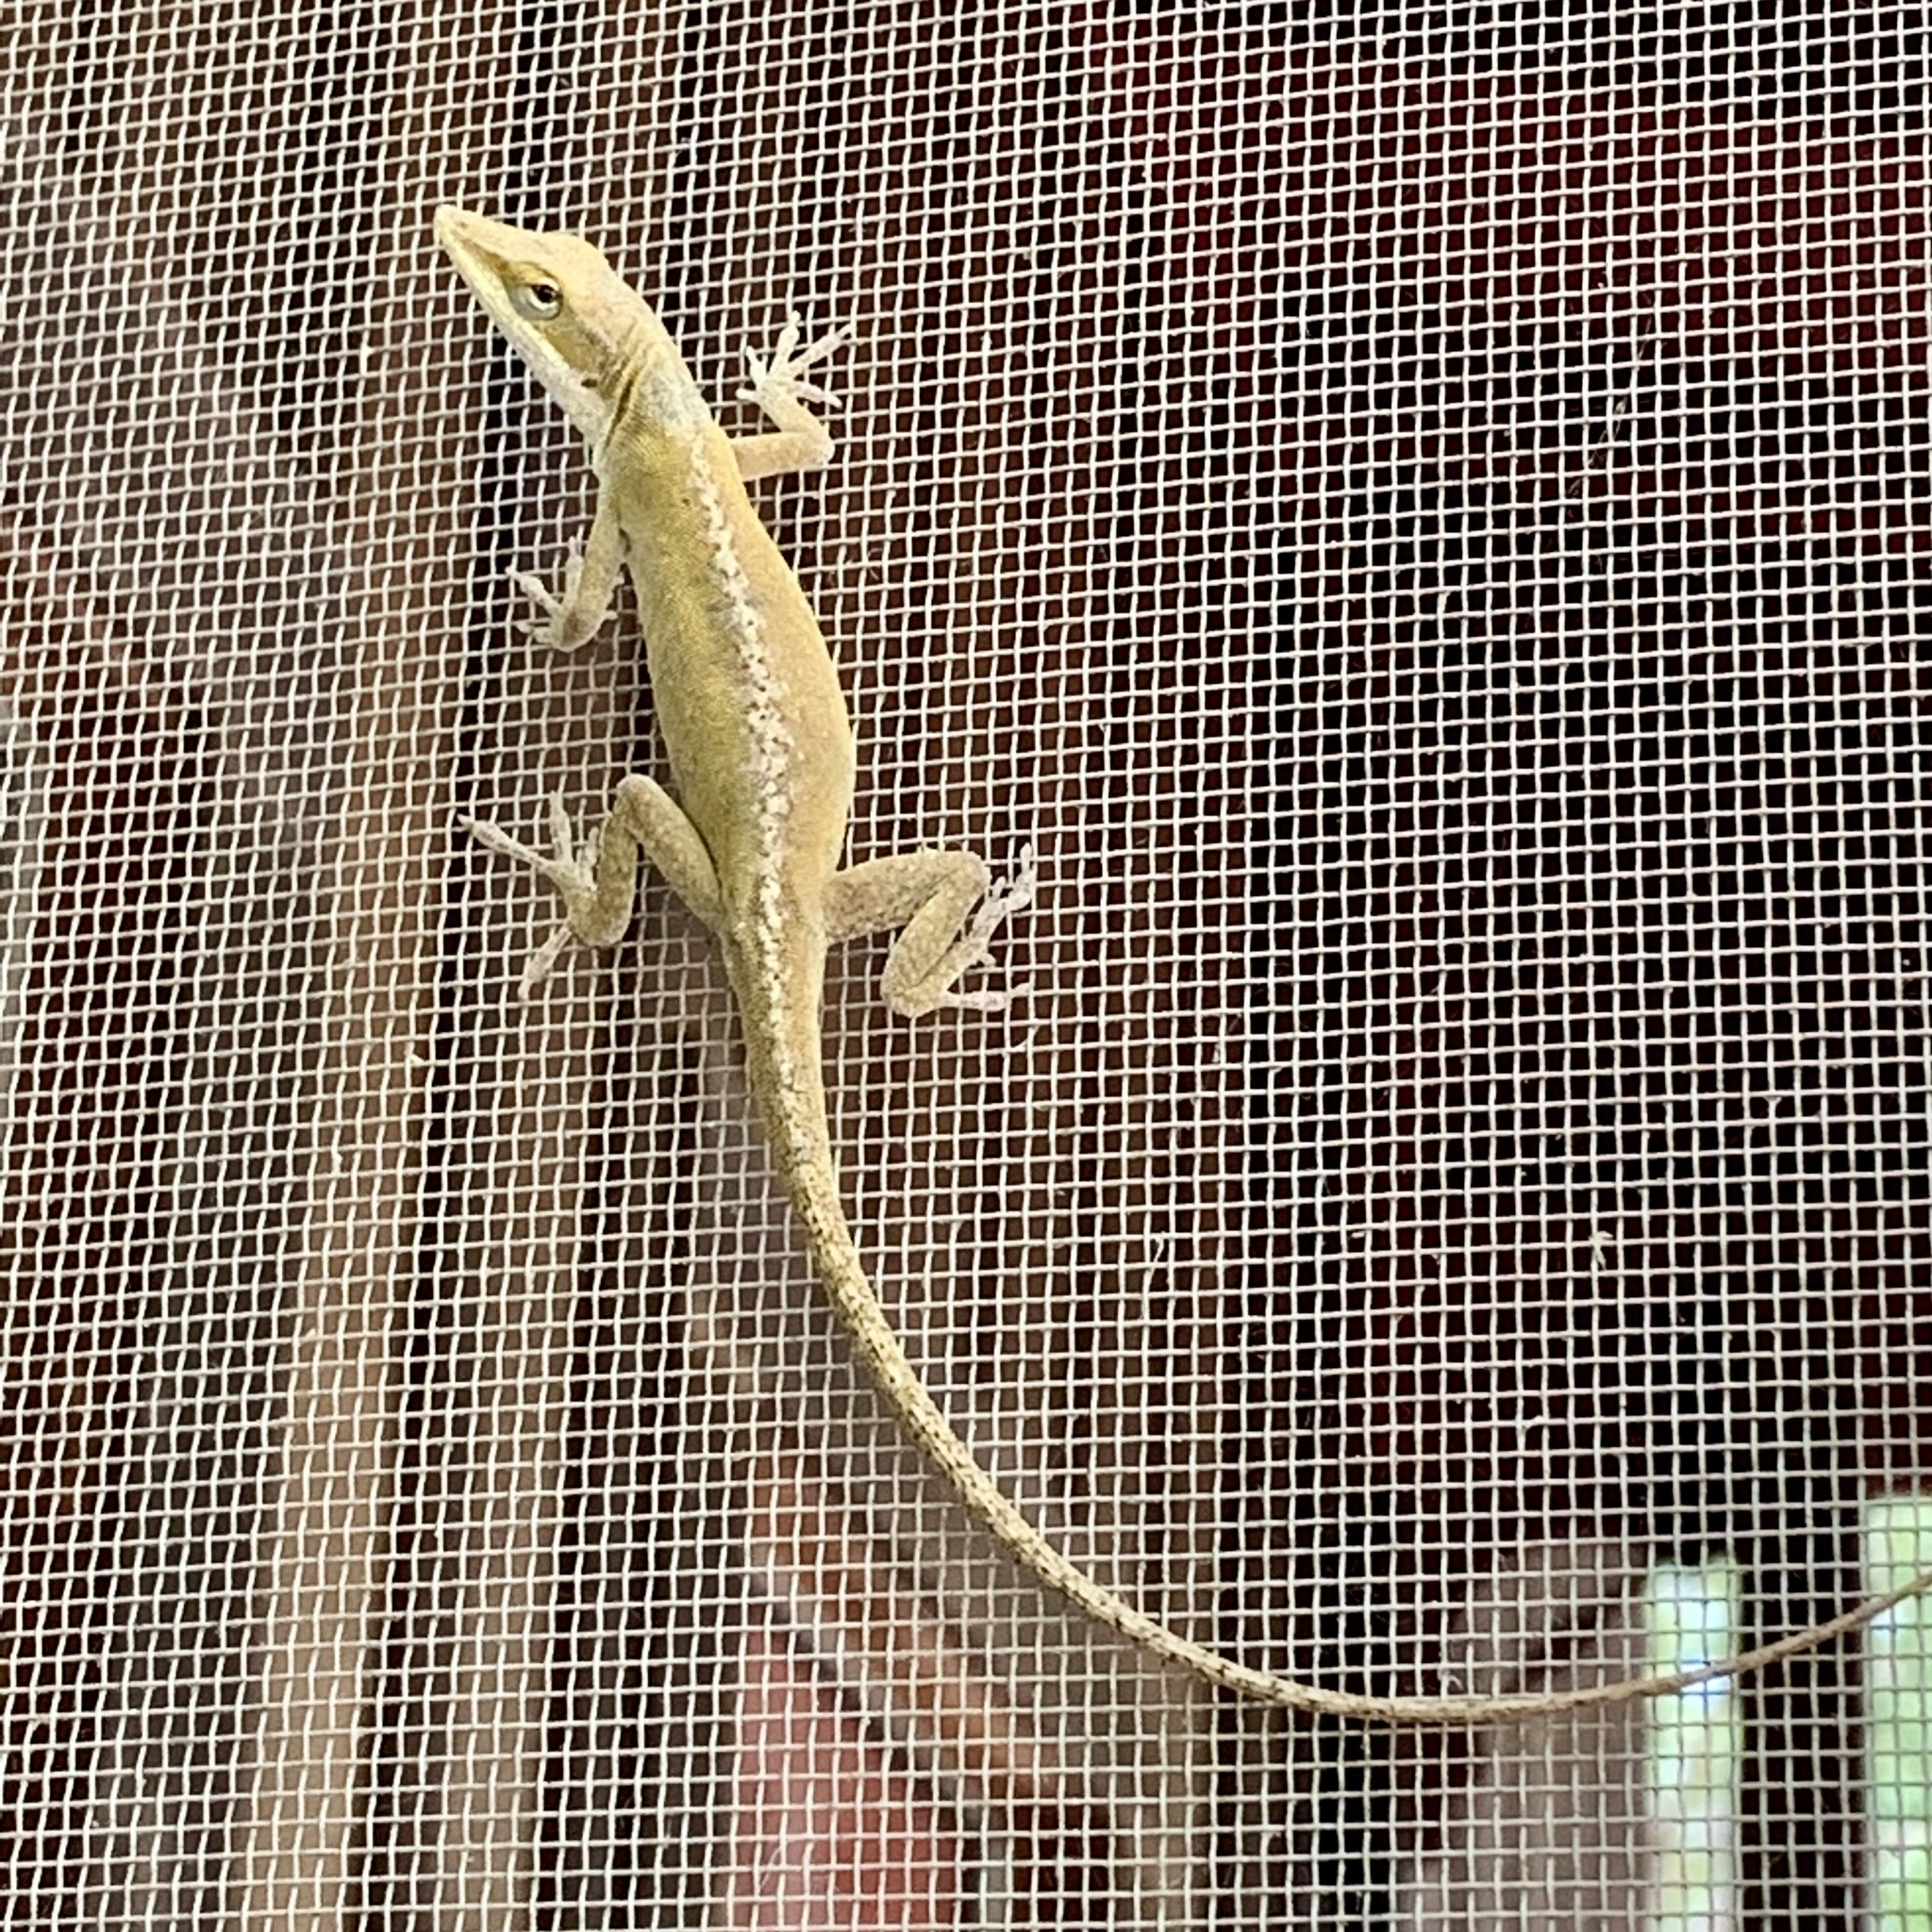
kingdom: Animalia
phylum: Chordata
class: Squamata
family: Dactyloidae
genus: Anolis
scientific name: Anolis carolinensis
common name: Green anole
